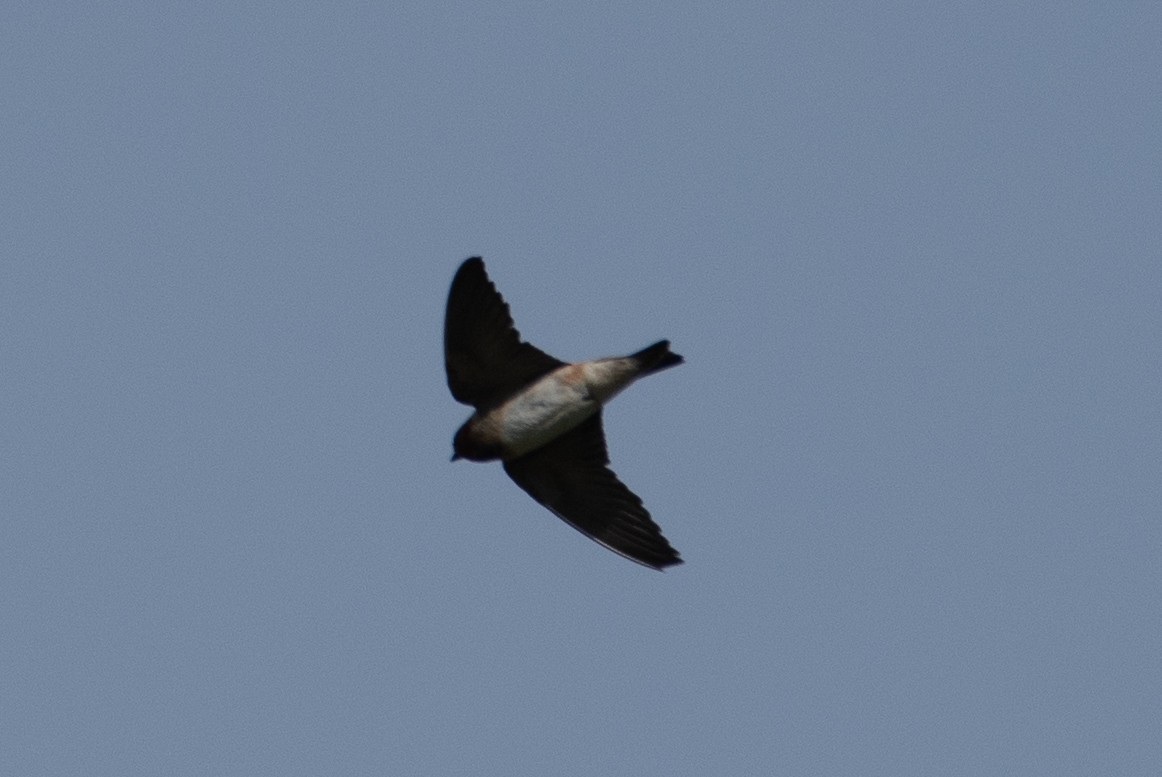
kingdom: Animalia
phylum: Chordata
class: Aves
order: Passeriformes
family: Hirundinidae
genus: Petrochelidon
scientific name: Petrochelidon pyrrhonota
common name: American cliff swallow
